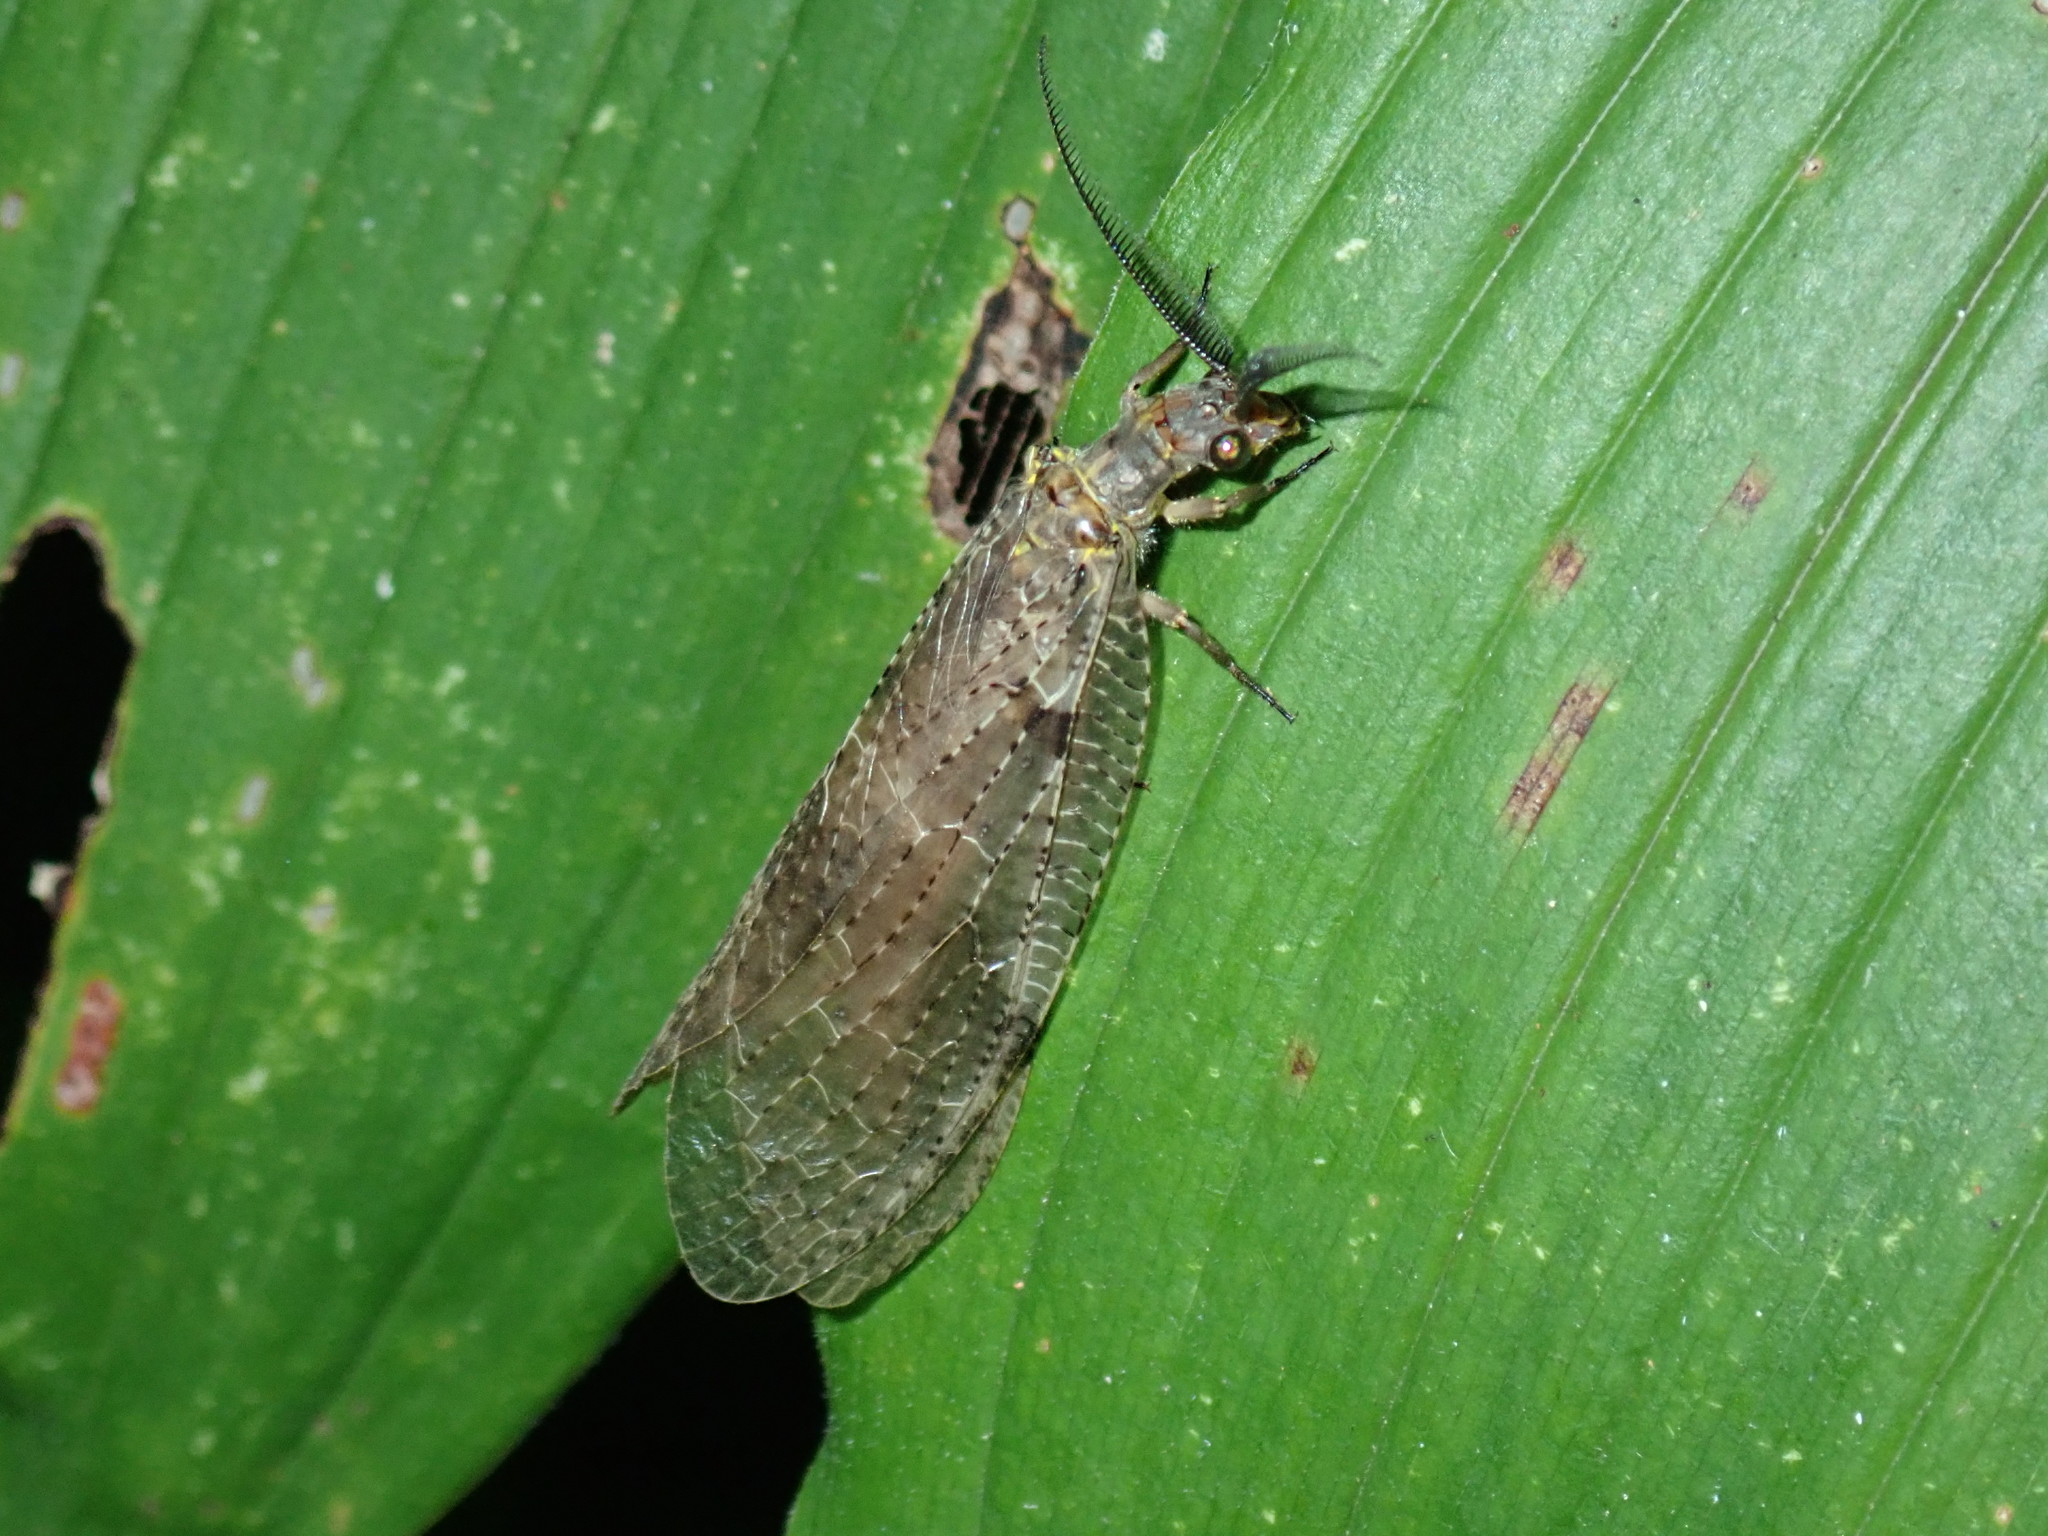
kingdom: Animalia
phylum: Arthropoda
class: Insecta
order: Megaloptera
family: Corydalidae
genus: Chauliodes
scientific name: Chauliodes pectinicornis
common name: Summer fishfly
